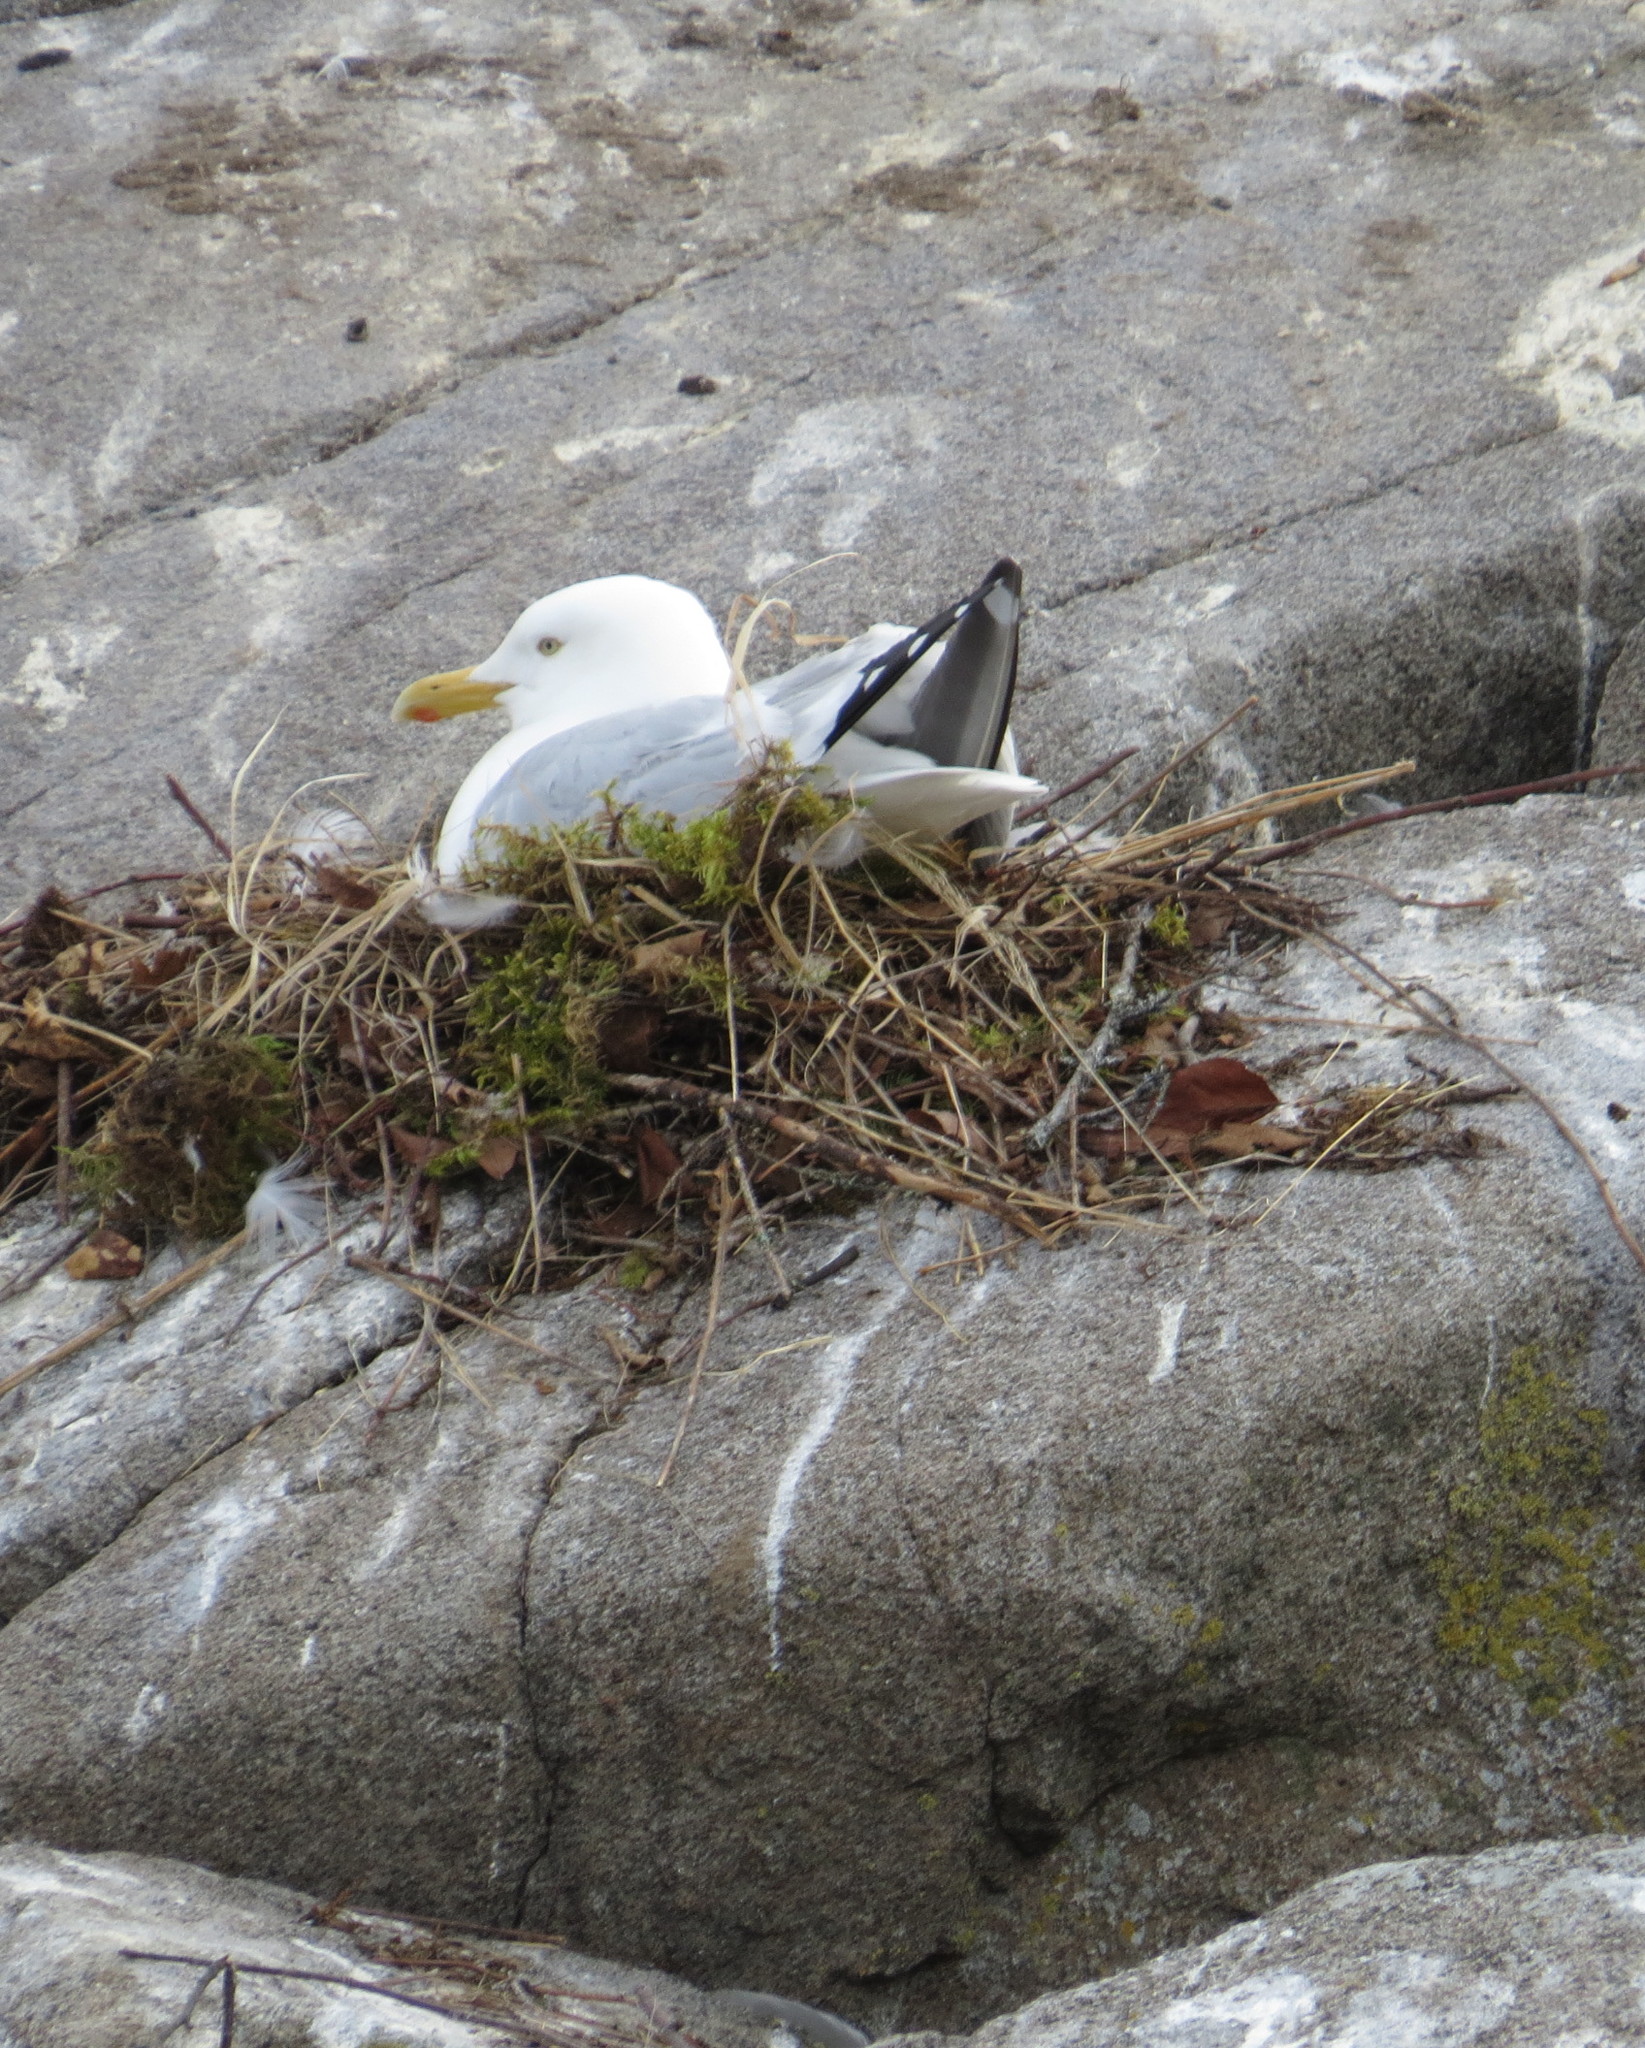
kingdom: Animalia
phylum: Chordata
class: Aves
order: Charadriiformes
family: Laridae
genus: Larus
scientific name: Larus argentatus
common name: Herring gull
